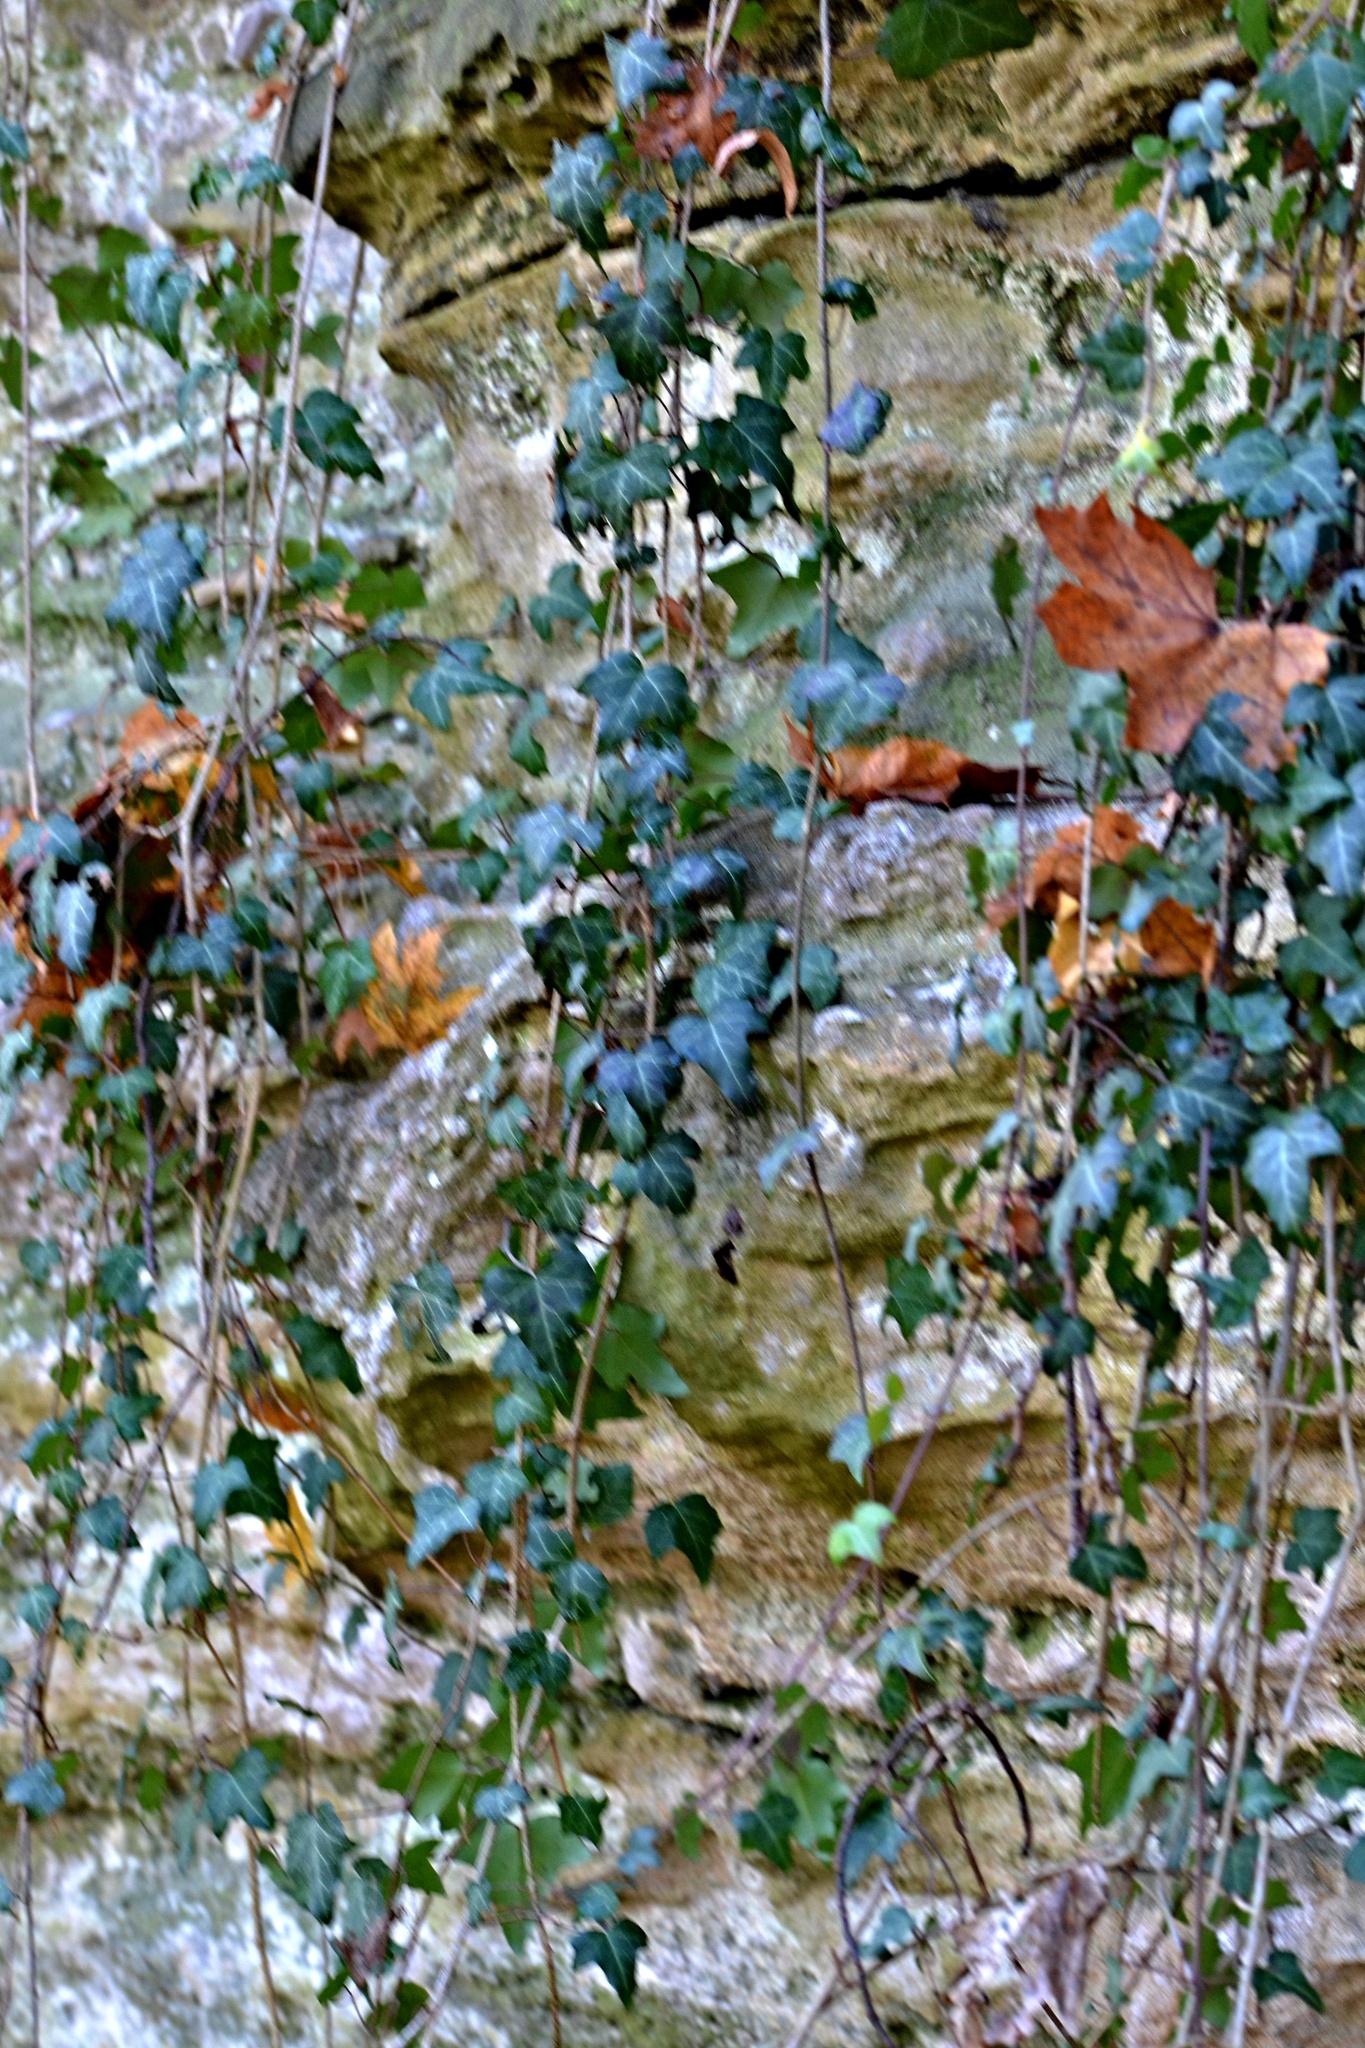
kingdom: Plantae
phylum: Tracheophyta
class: Magnoliopsida
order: Apiales
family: Araliaceae
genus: Hedera
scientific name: Hedera helix
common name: Ivy
